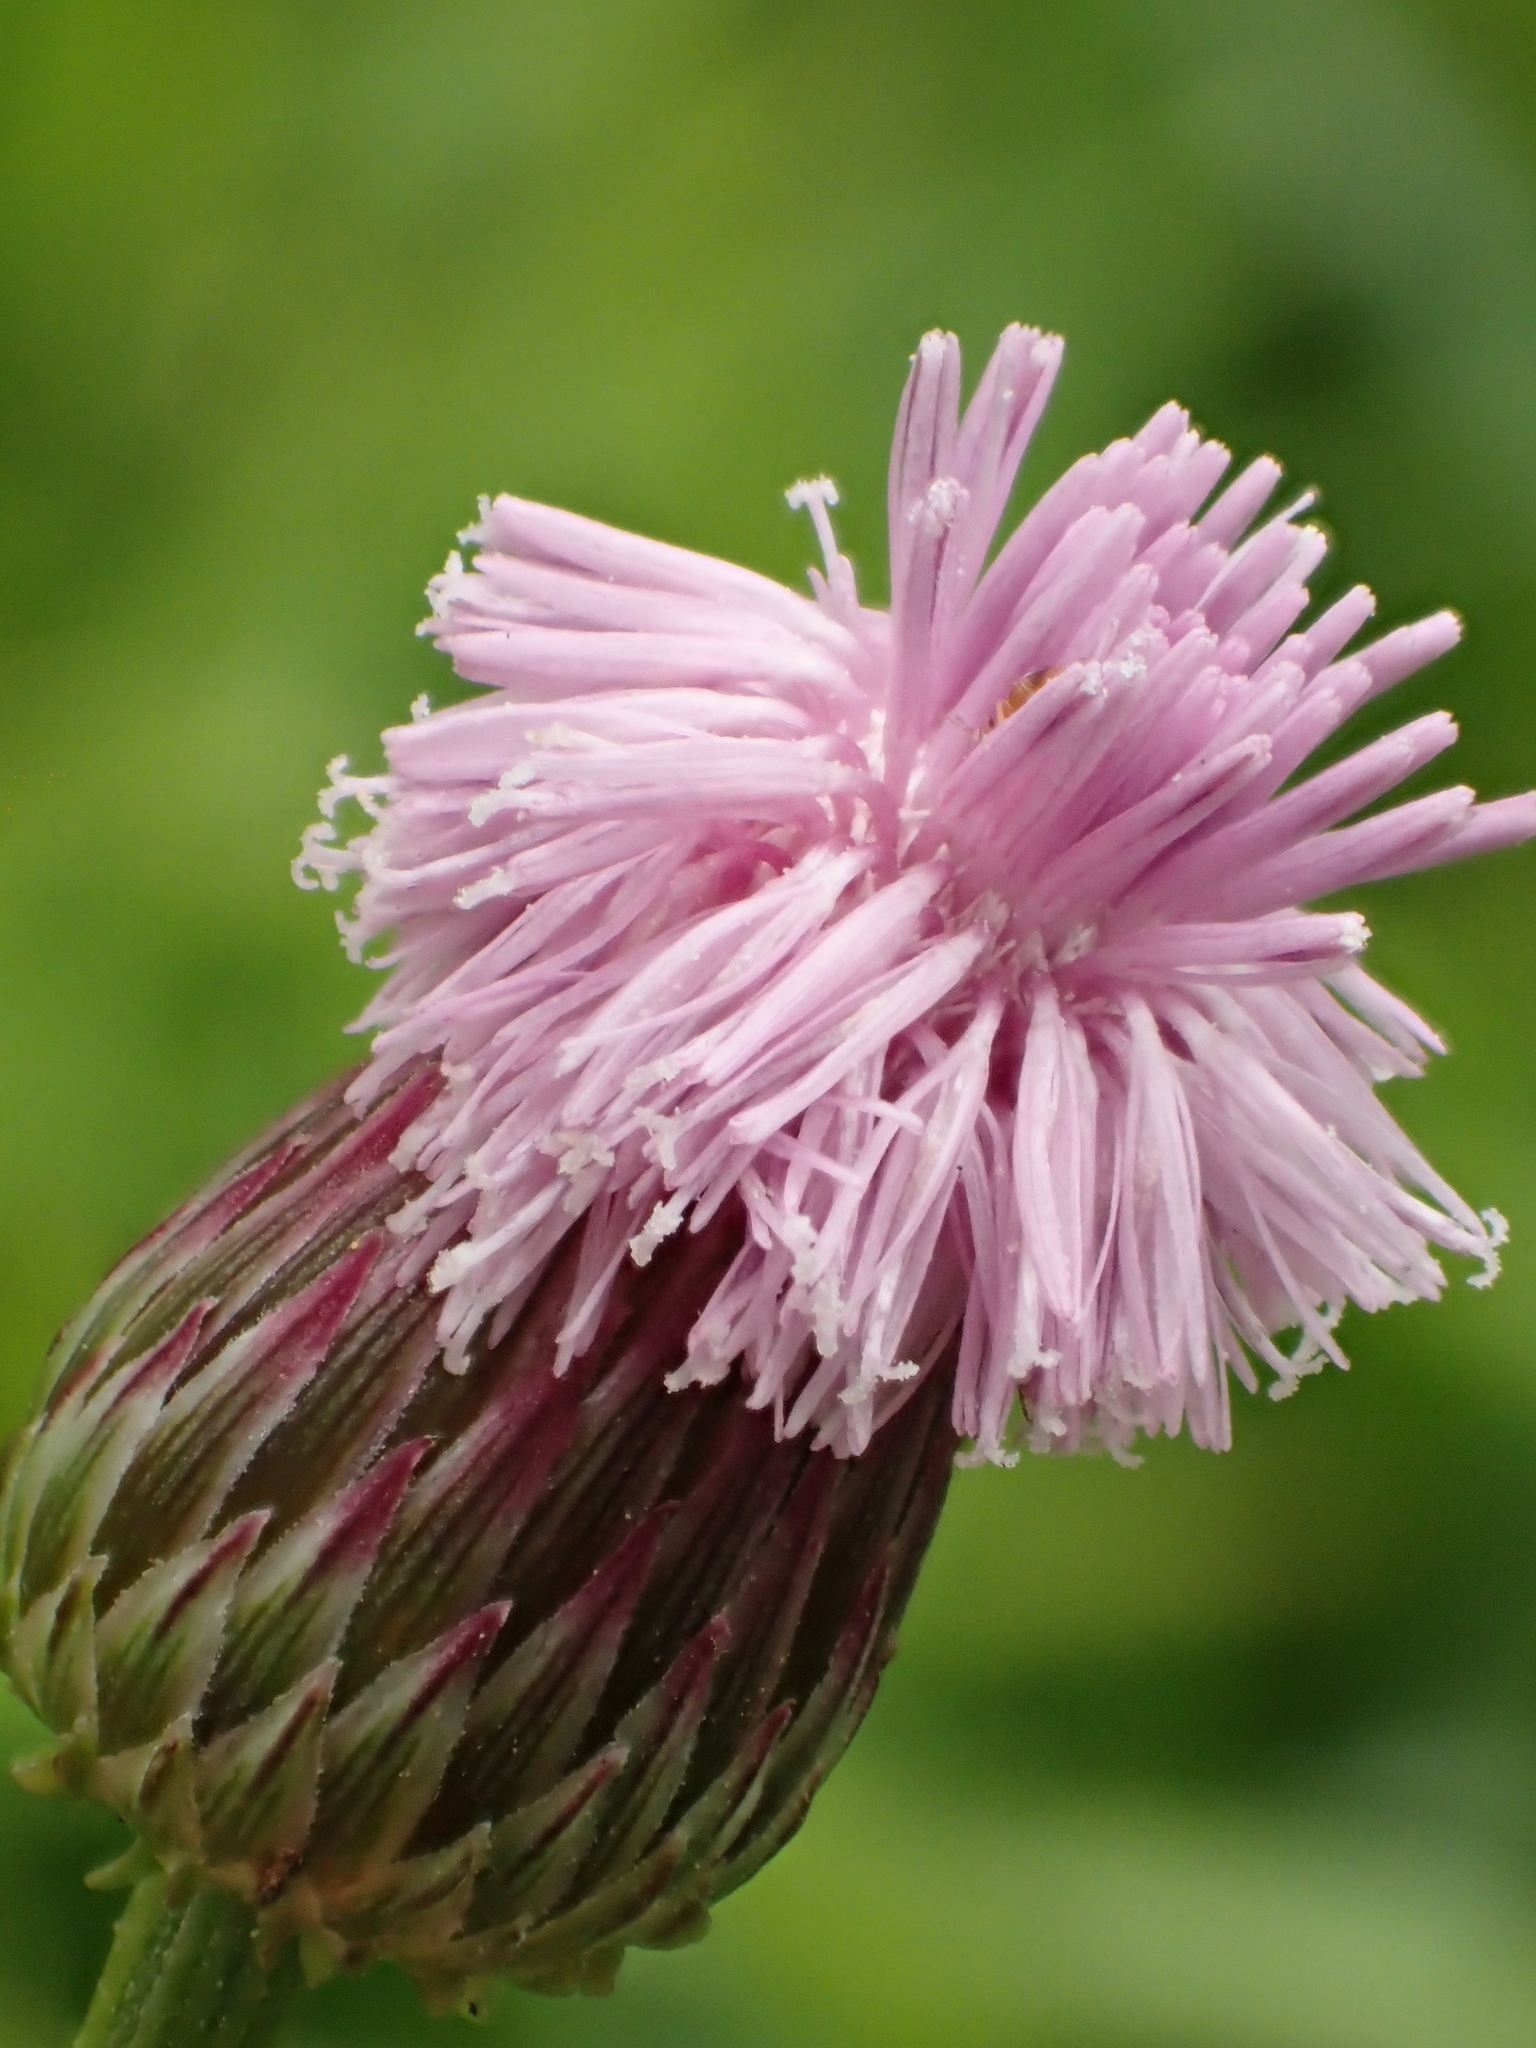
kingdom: Plantae
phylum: Tracheophyta
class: Magnoliopsida
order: Asterales
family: Asteraceae
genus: Saussurea
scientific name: Saussurea lyrata
